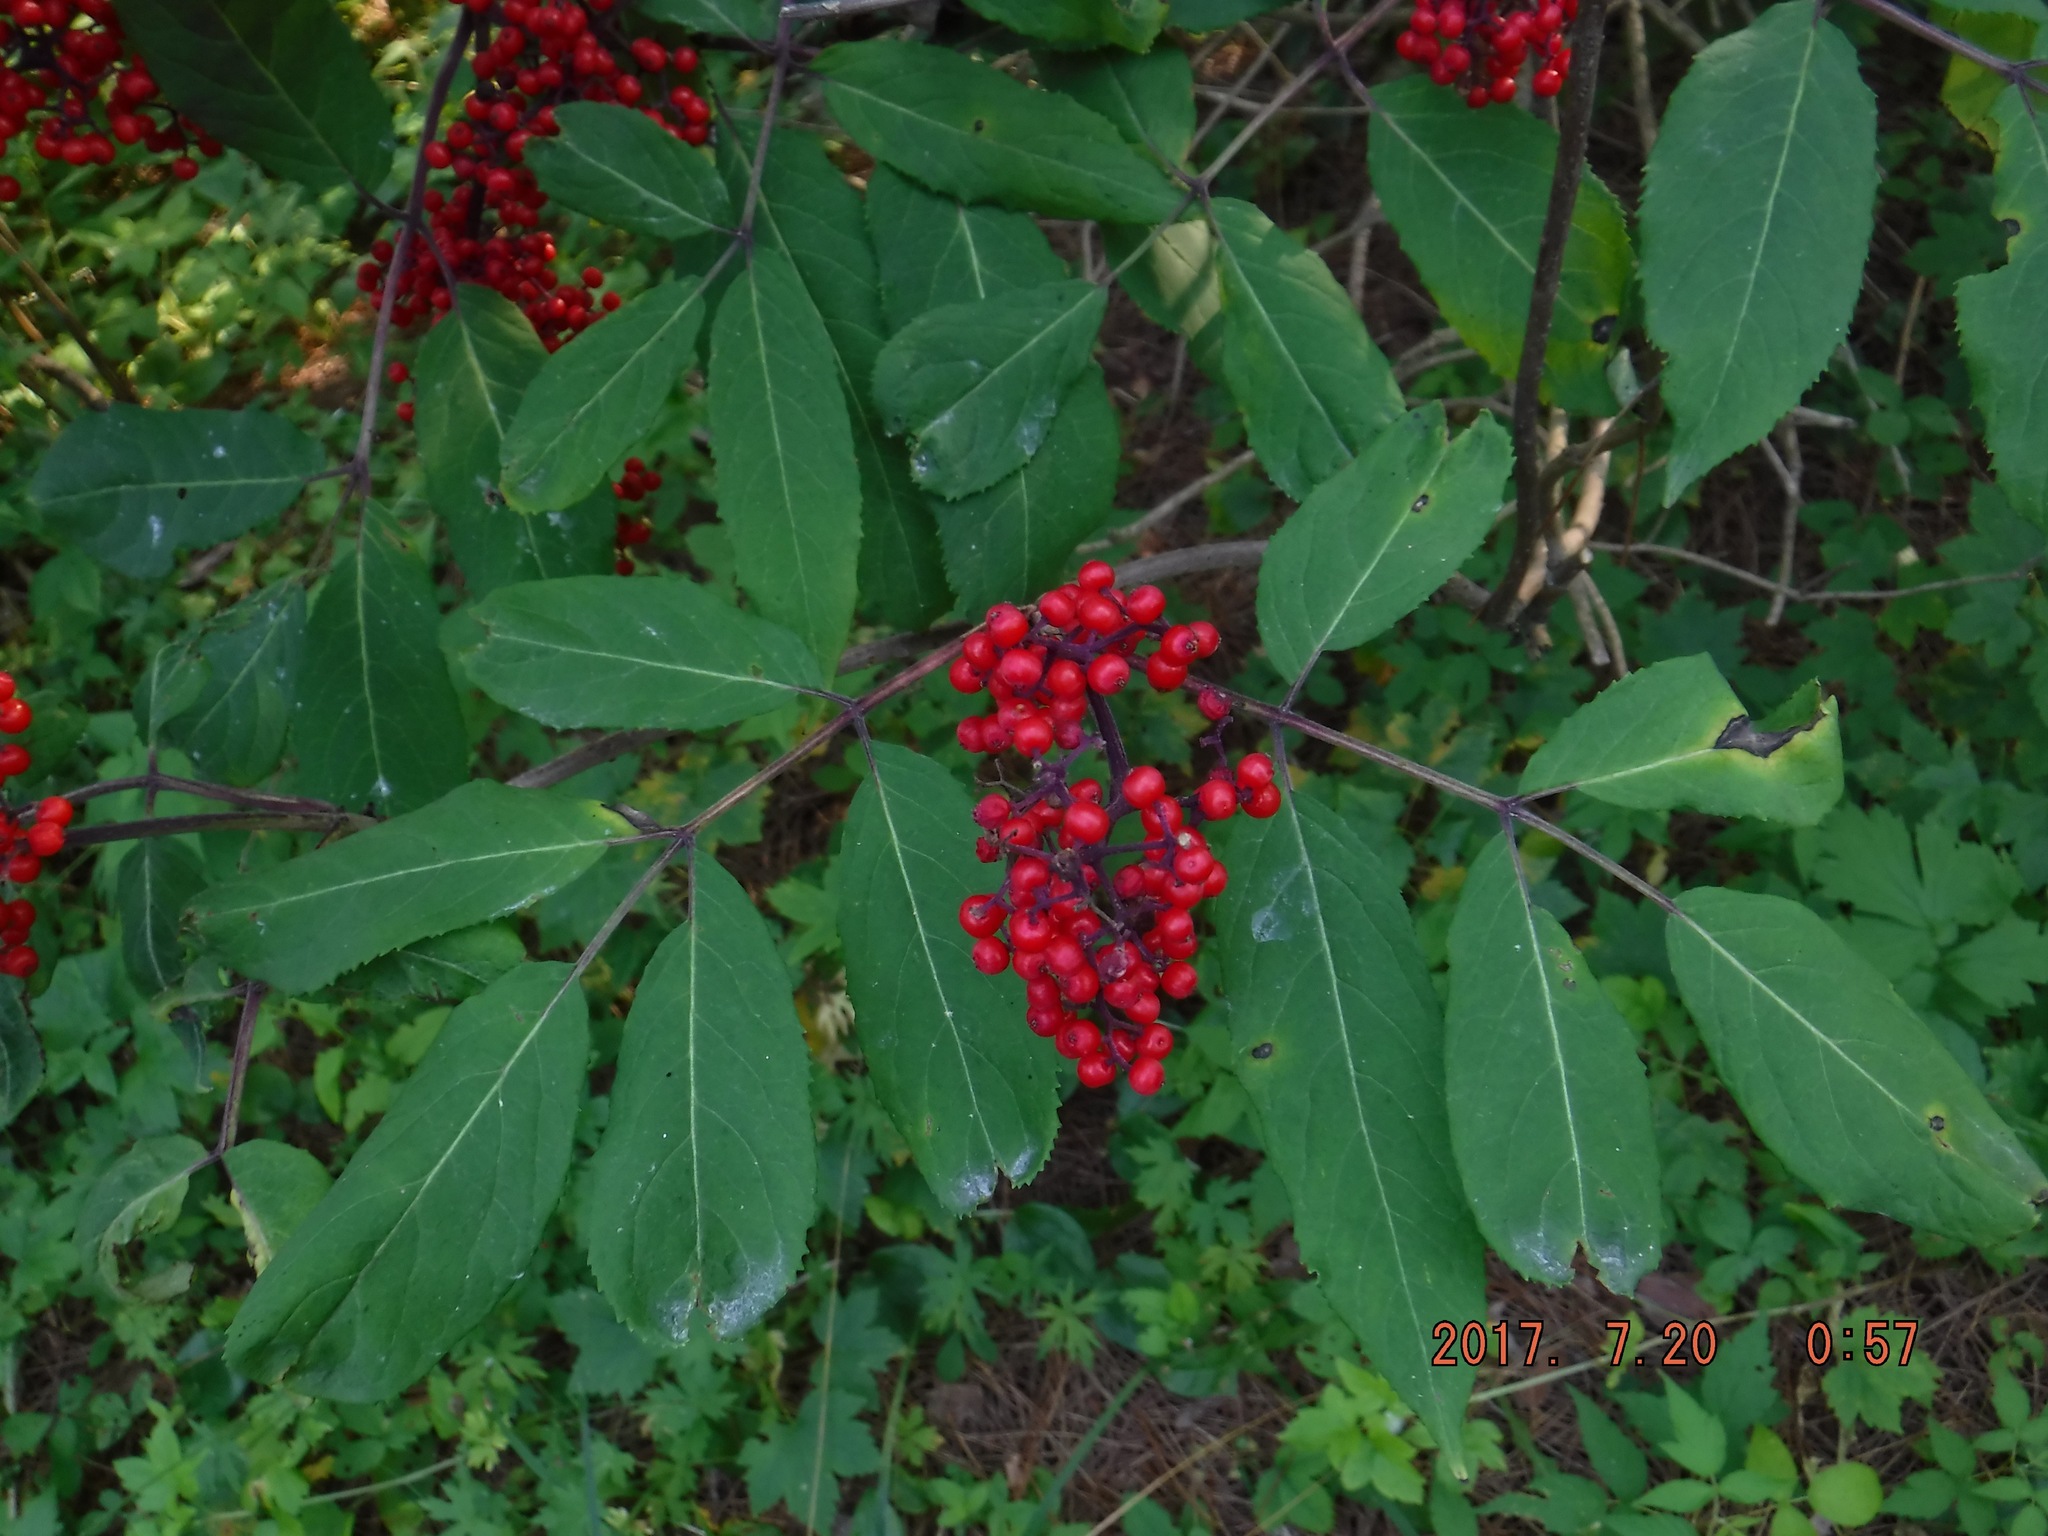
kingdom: Plantae
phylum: Tracheophyta
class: Magnoliopsida
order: Dipsacales
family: Viburnaceae
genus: Sambucus
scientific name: Sambucus racemosa
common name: Red-berried elder
